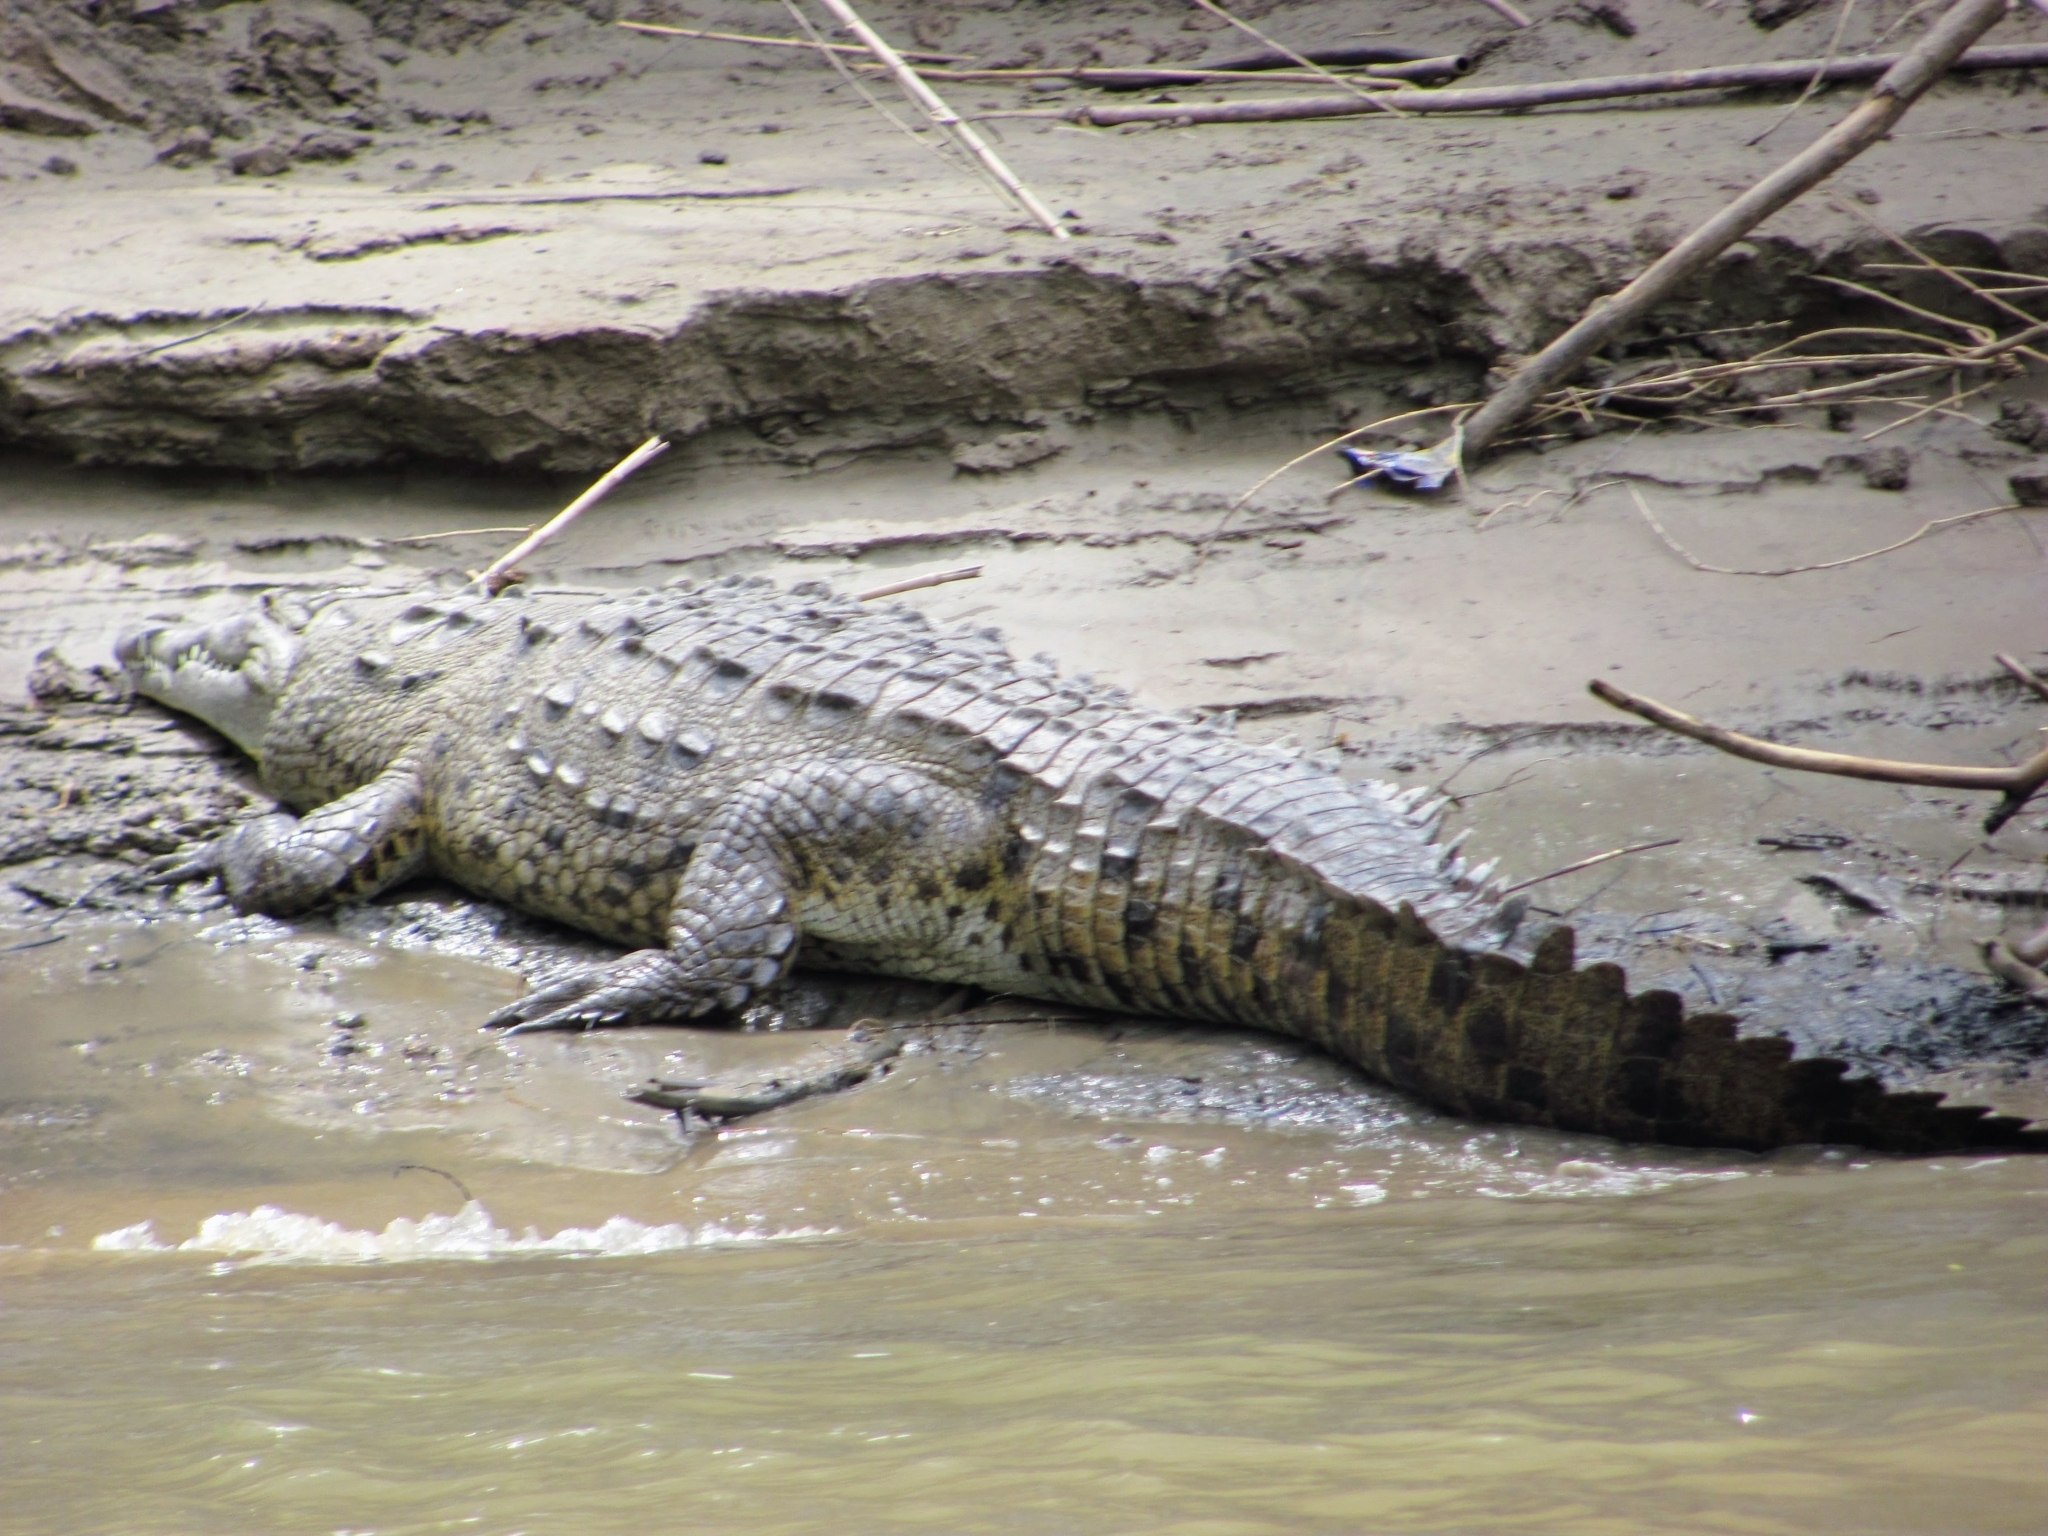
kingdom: Animalia
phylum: Chordata
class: Crocodylia
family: Crocodylidae
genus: Crocodylus
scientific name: Crocodylus acutus
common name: American crocodile
